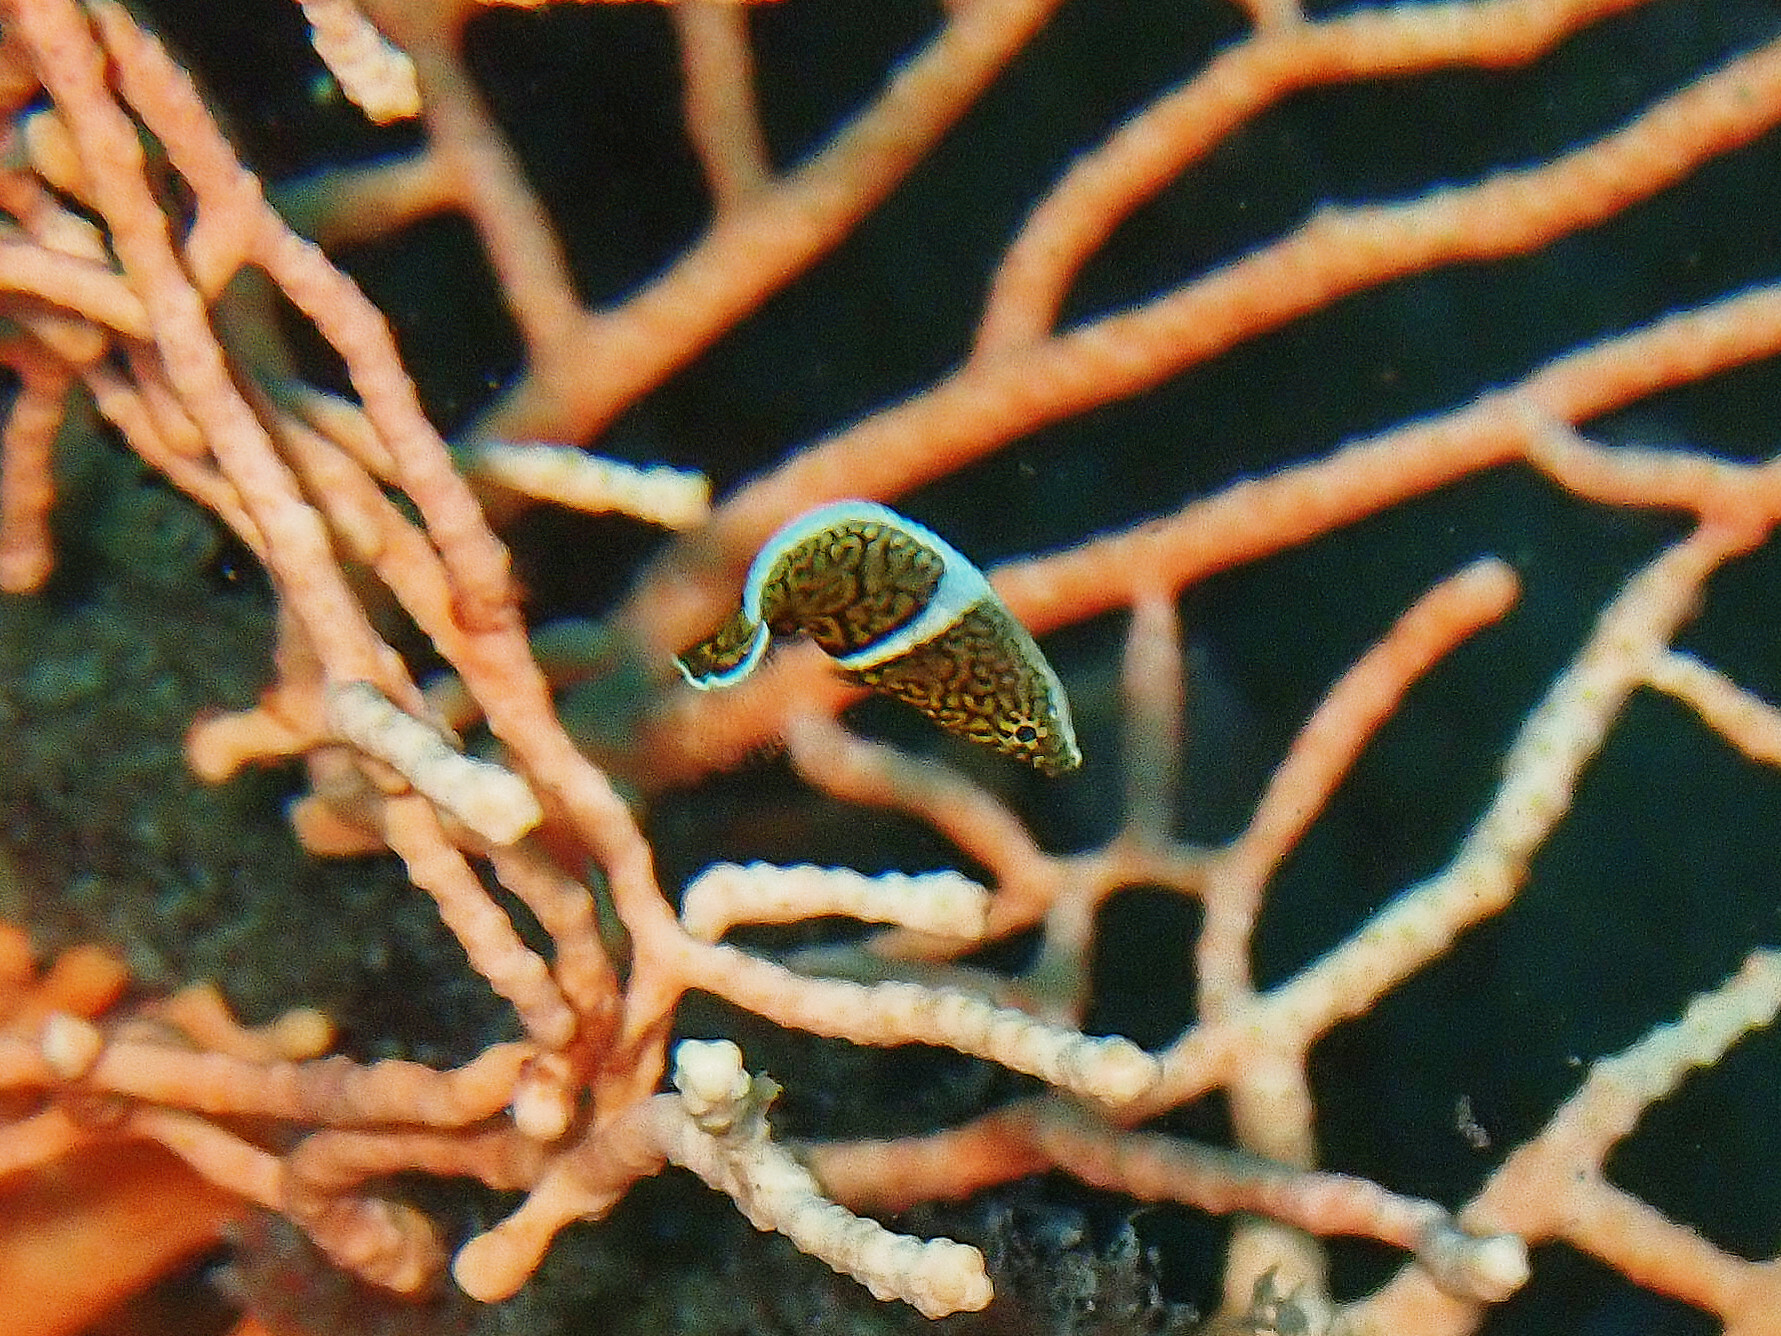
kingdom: Animalia
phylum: Chordata
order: Perciformes
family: Labridae
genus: Anampses
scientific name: Anampses lineatus
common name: Lined wrasse
